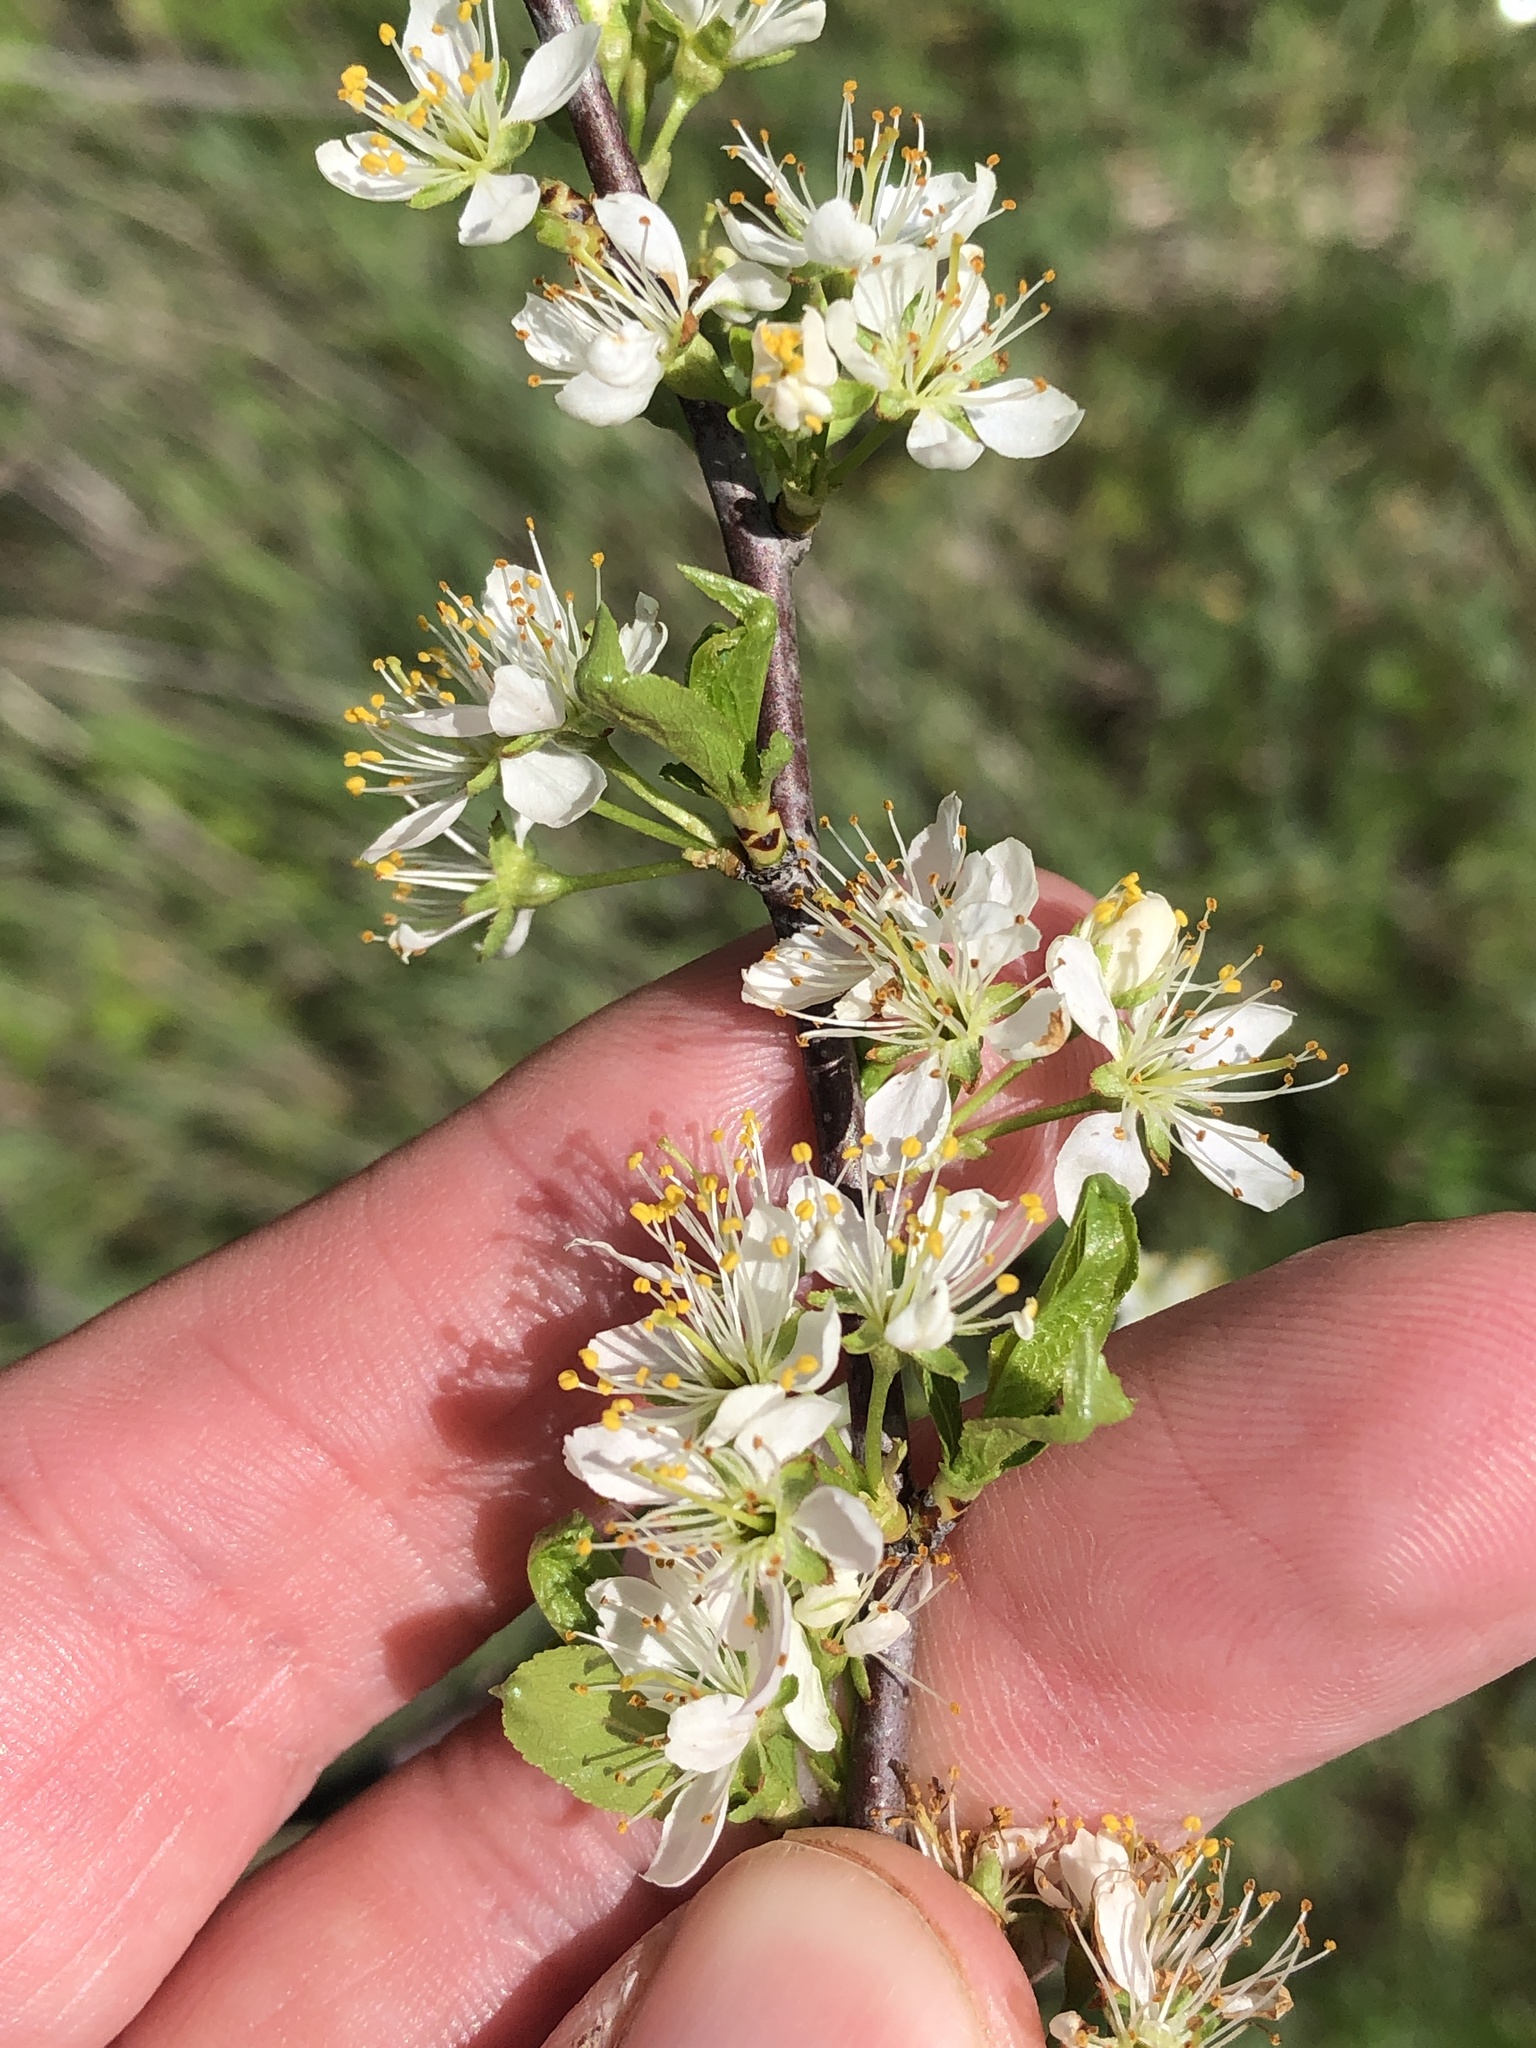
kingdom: Plantae
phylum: Tracheophyta
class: Magnoliopsida
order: Rosales
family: Rosaceae
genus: Prunus
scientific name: Prunus rivularis
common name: Creek plum
